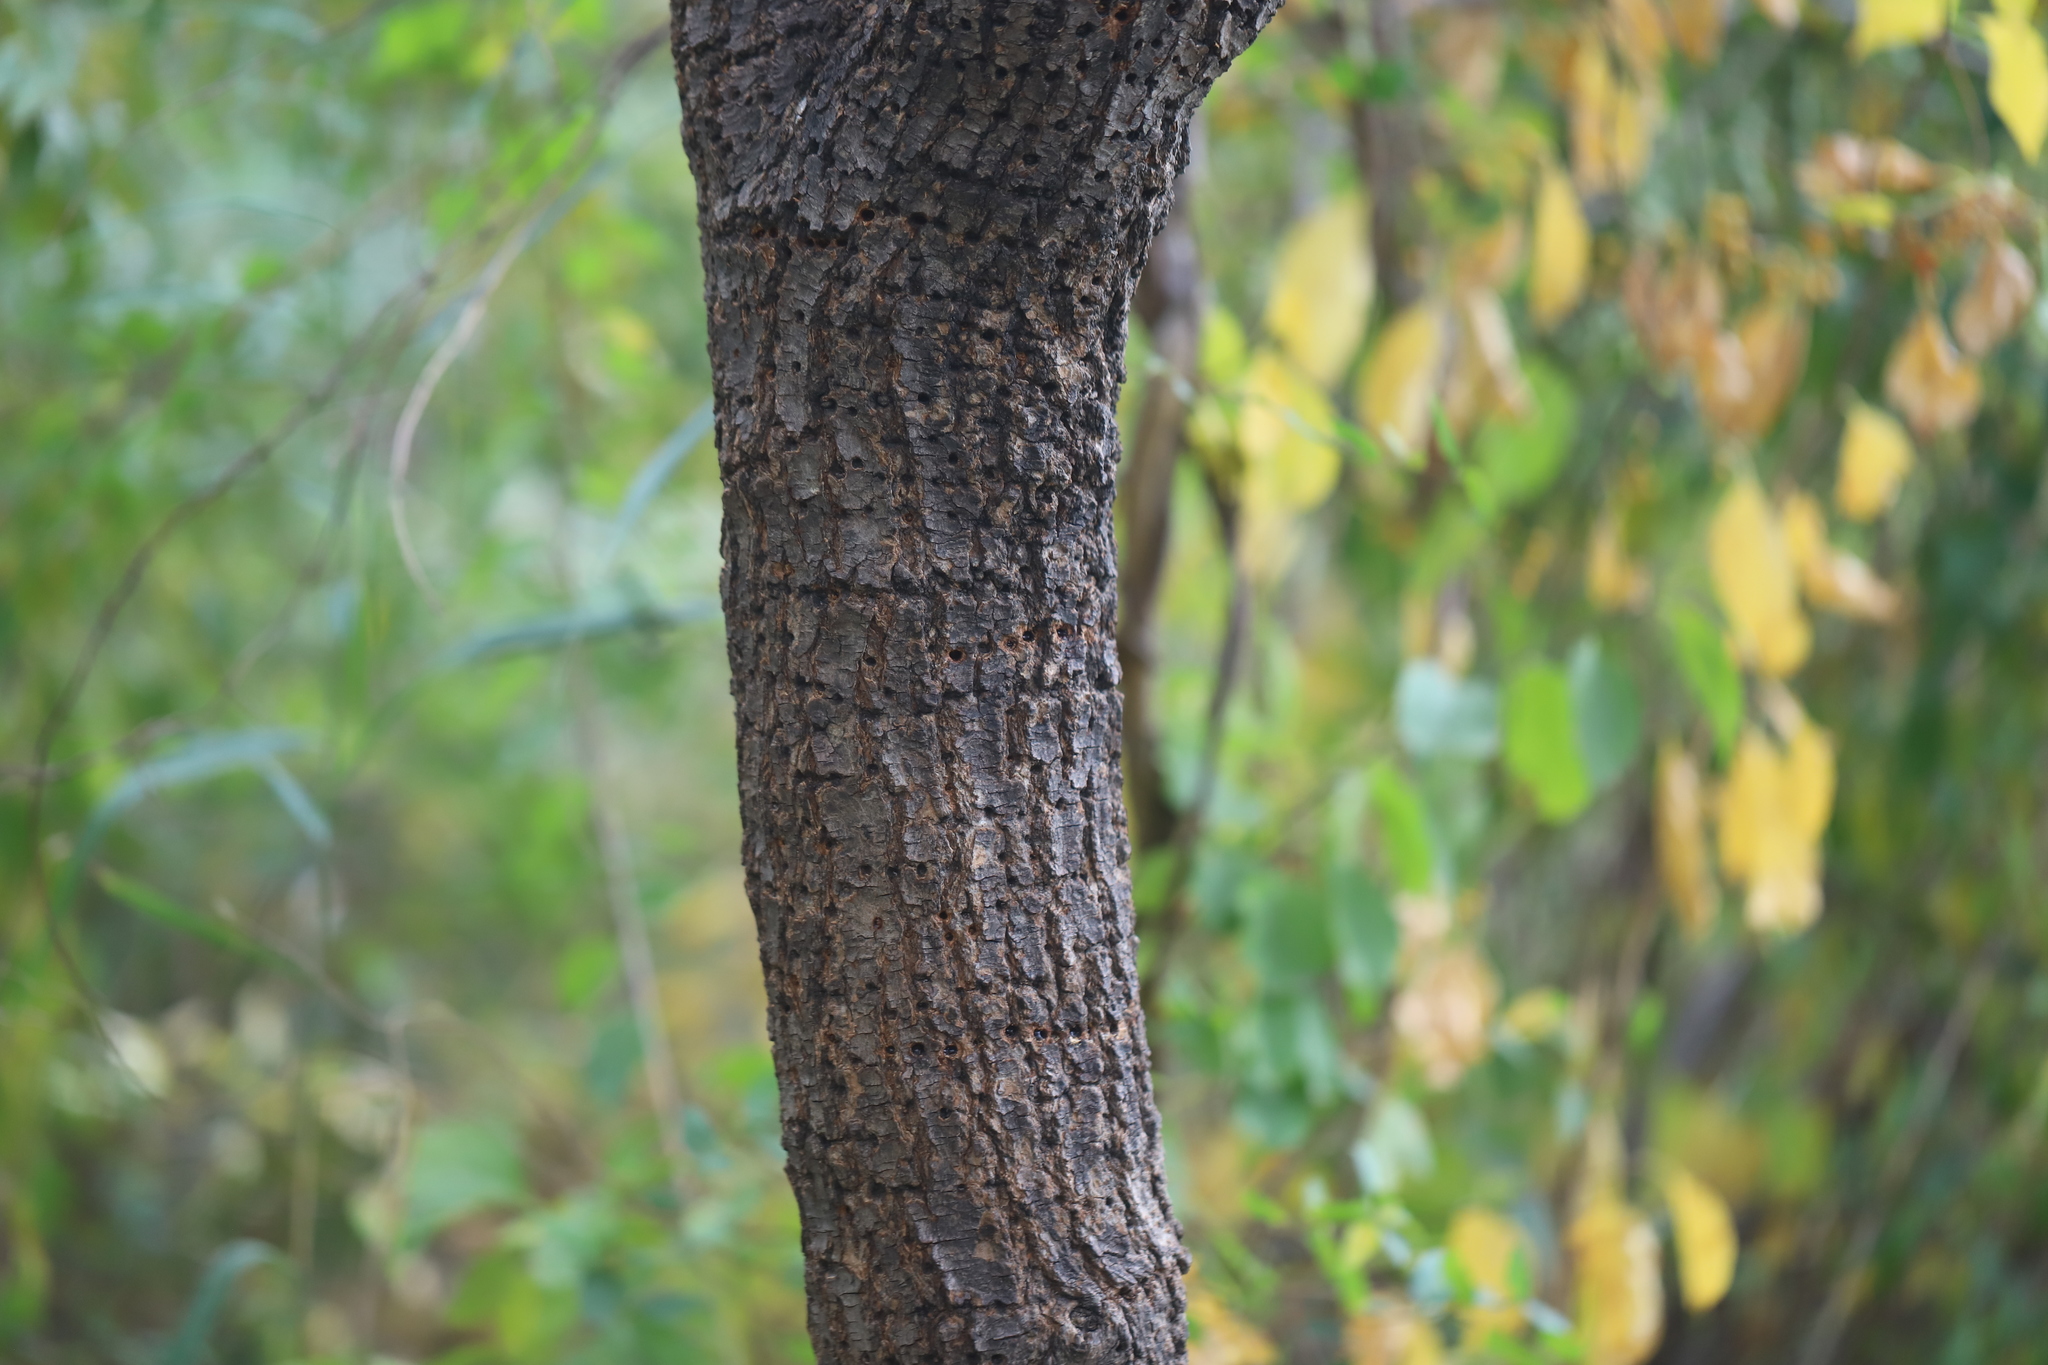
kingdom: Animalia
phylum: Chordata
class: Aves
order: Piciformes
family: Picidae
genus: Sphyrapicus
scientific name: Sphyrapicus varius
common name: Yellow-bellied sapsucker
